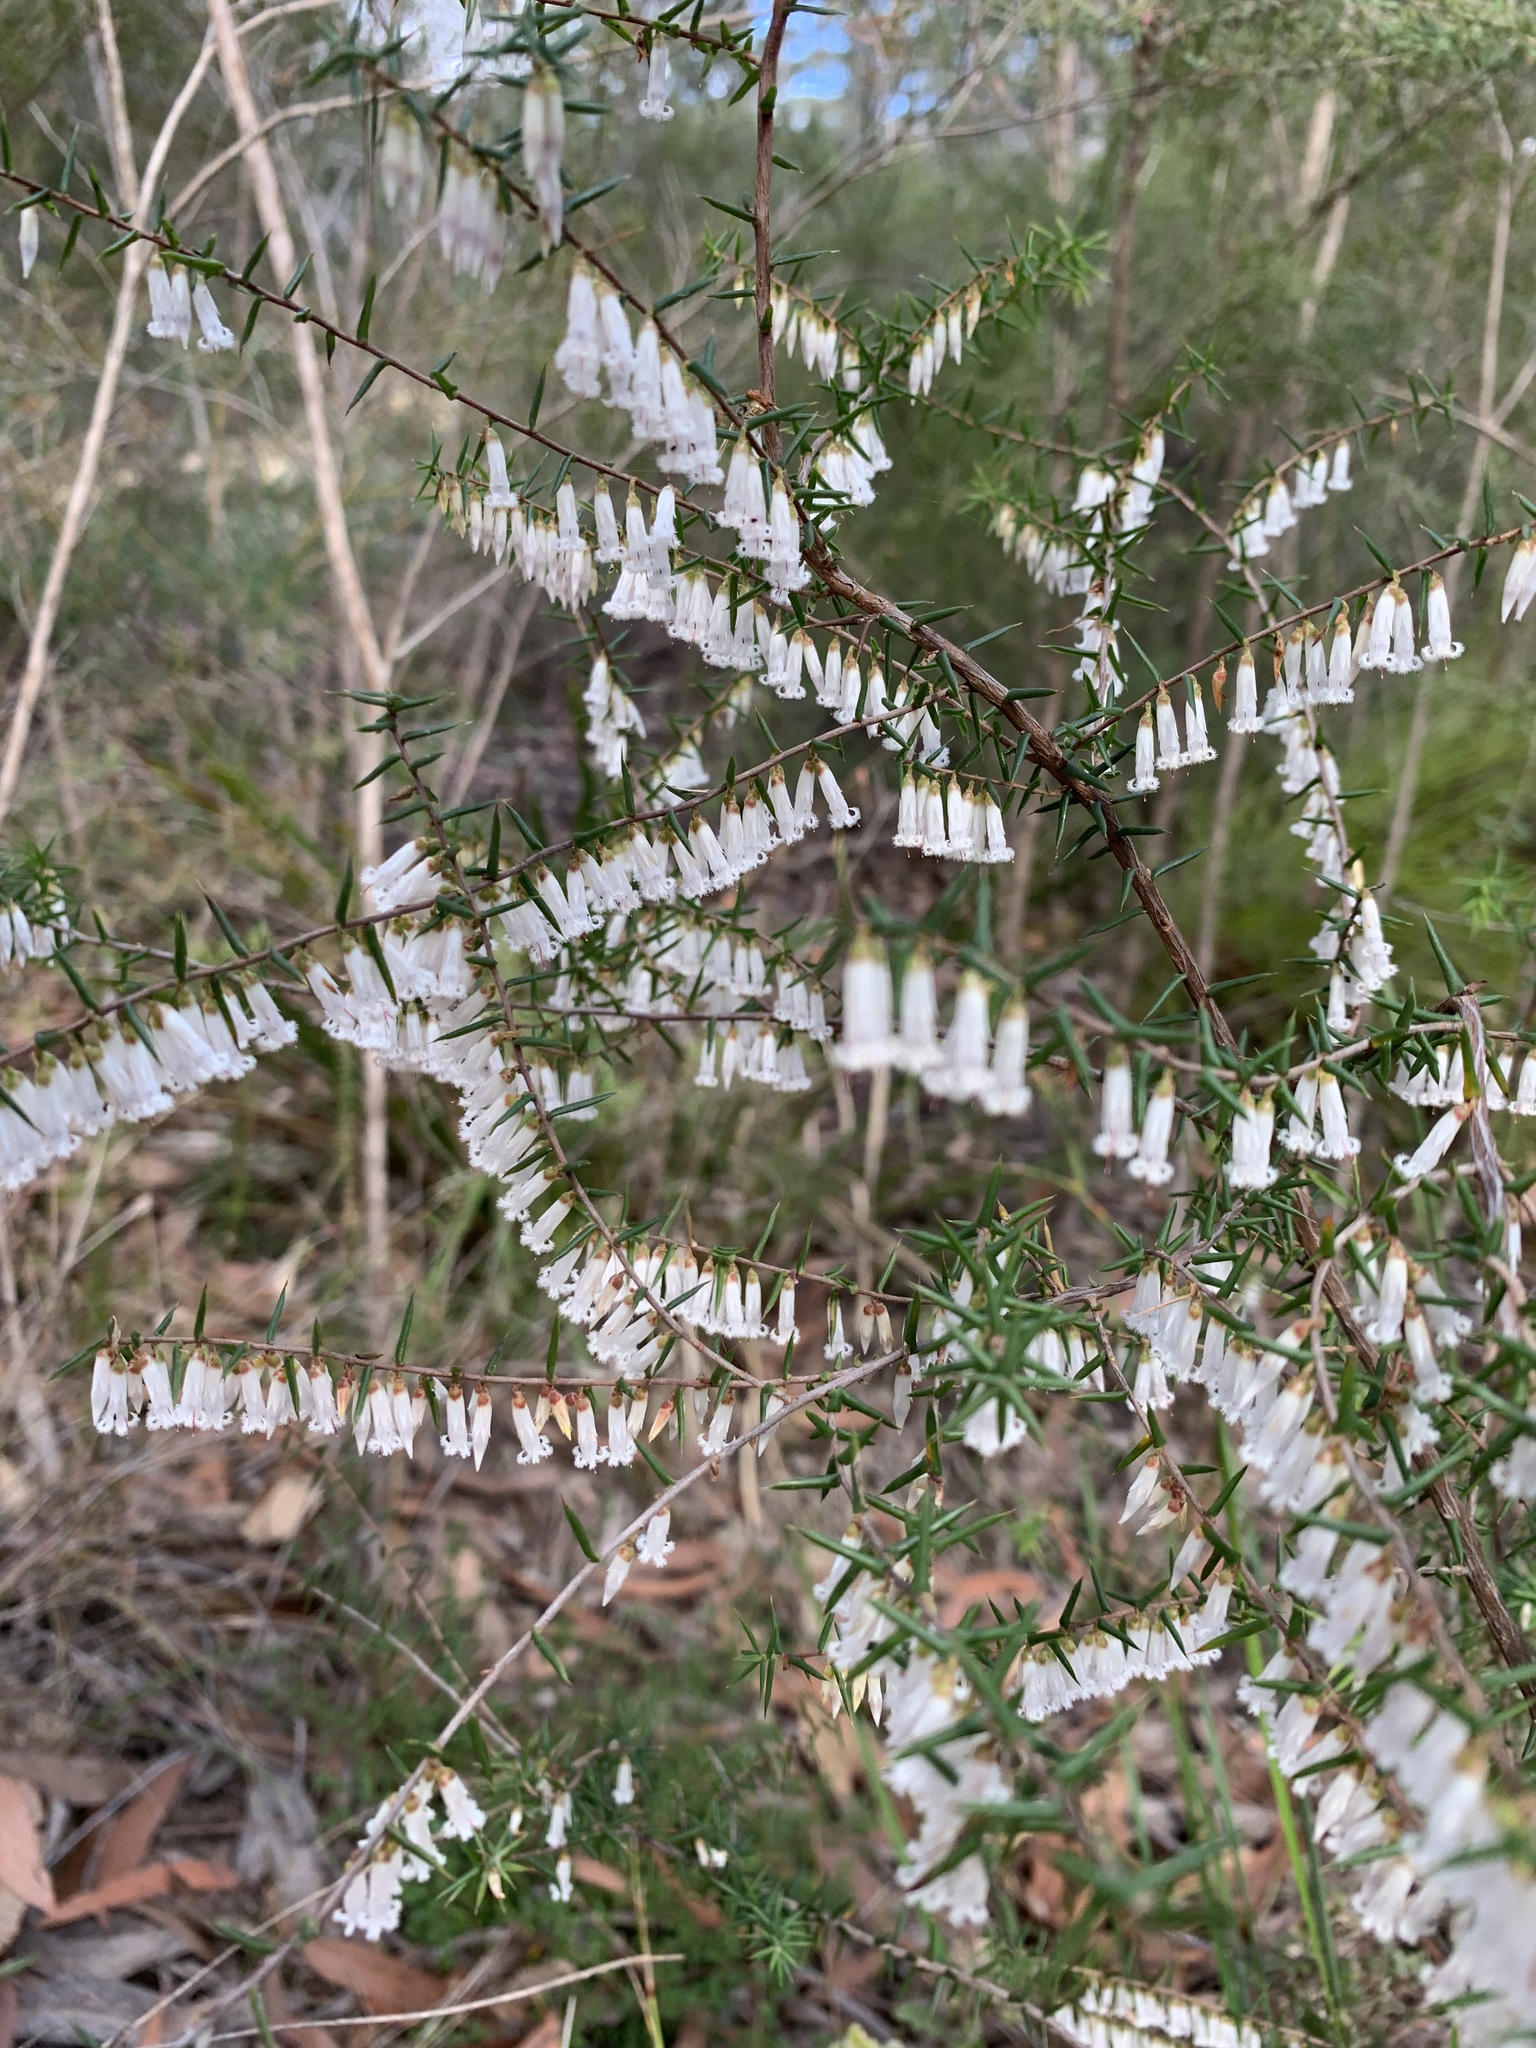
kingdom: Plantae
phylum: Tracheophyta
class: Magnoliopsida
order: Ericales
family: Ericaceae
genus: Styphelia
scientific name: Styphelia fletcheri
